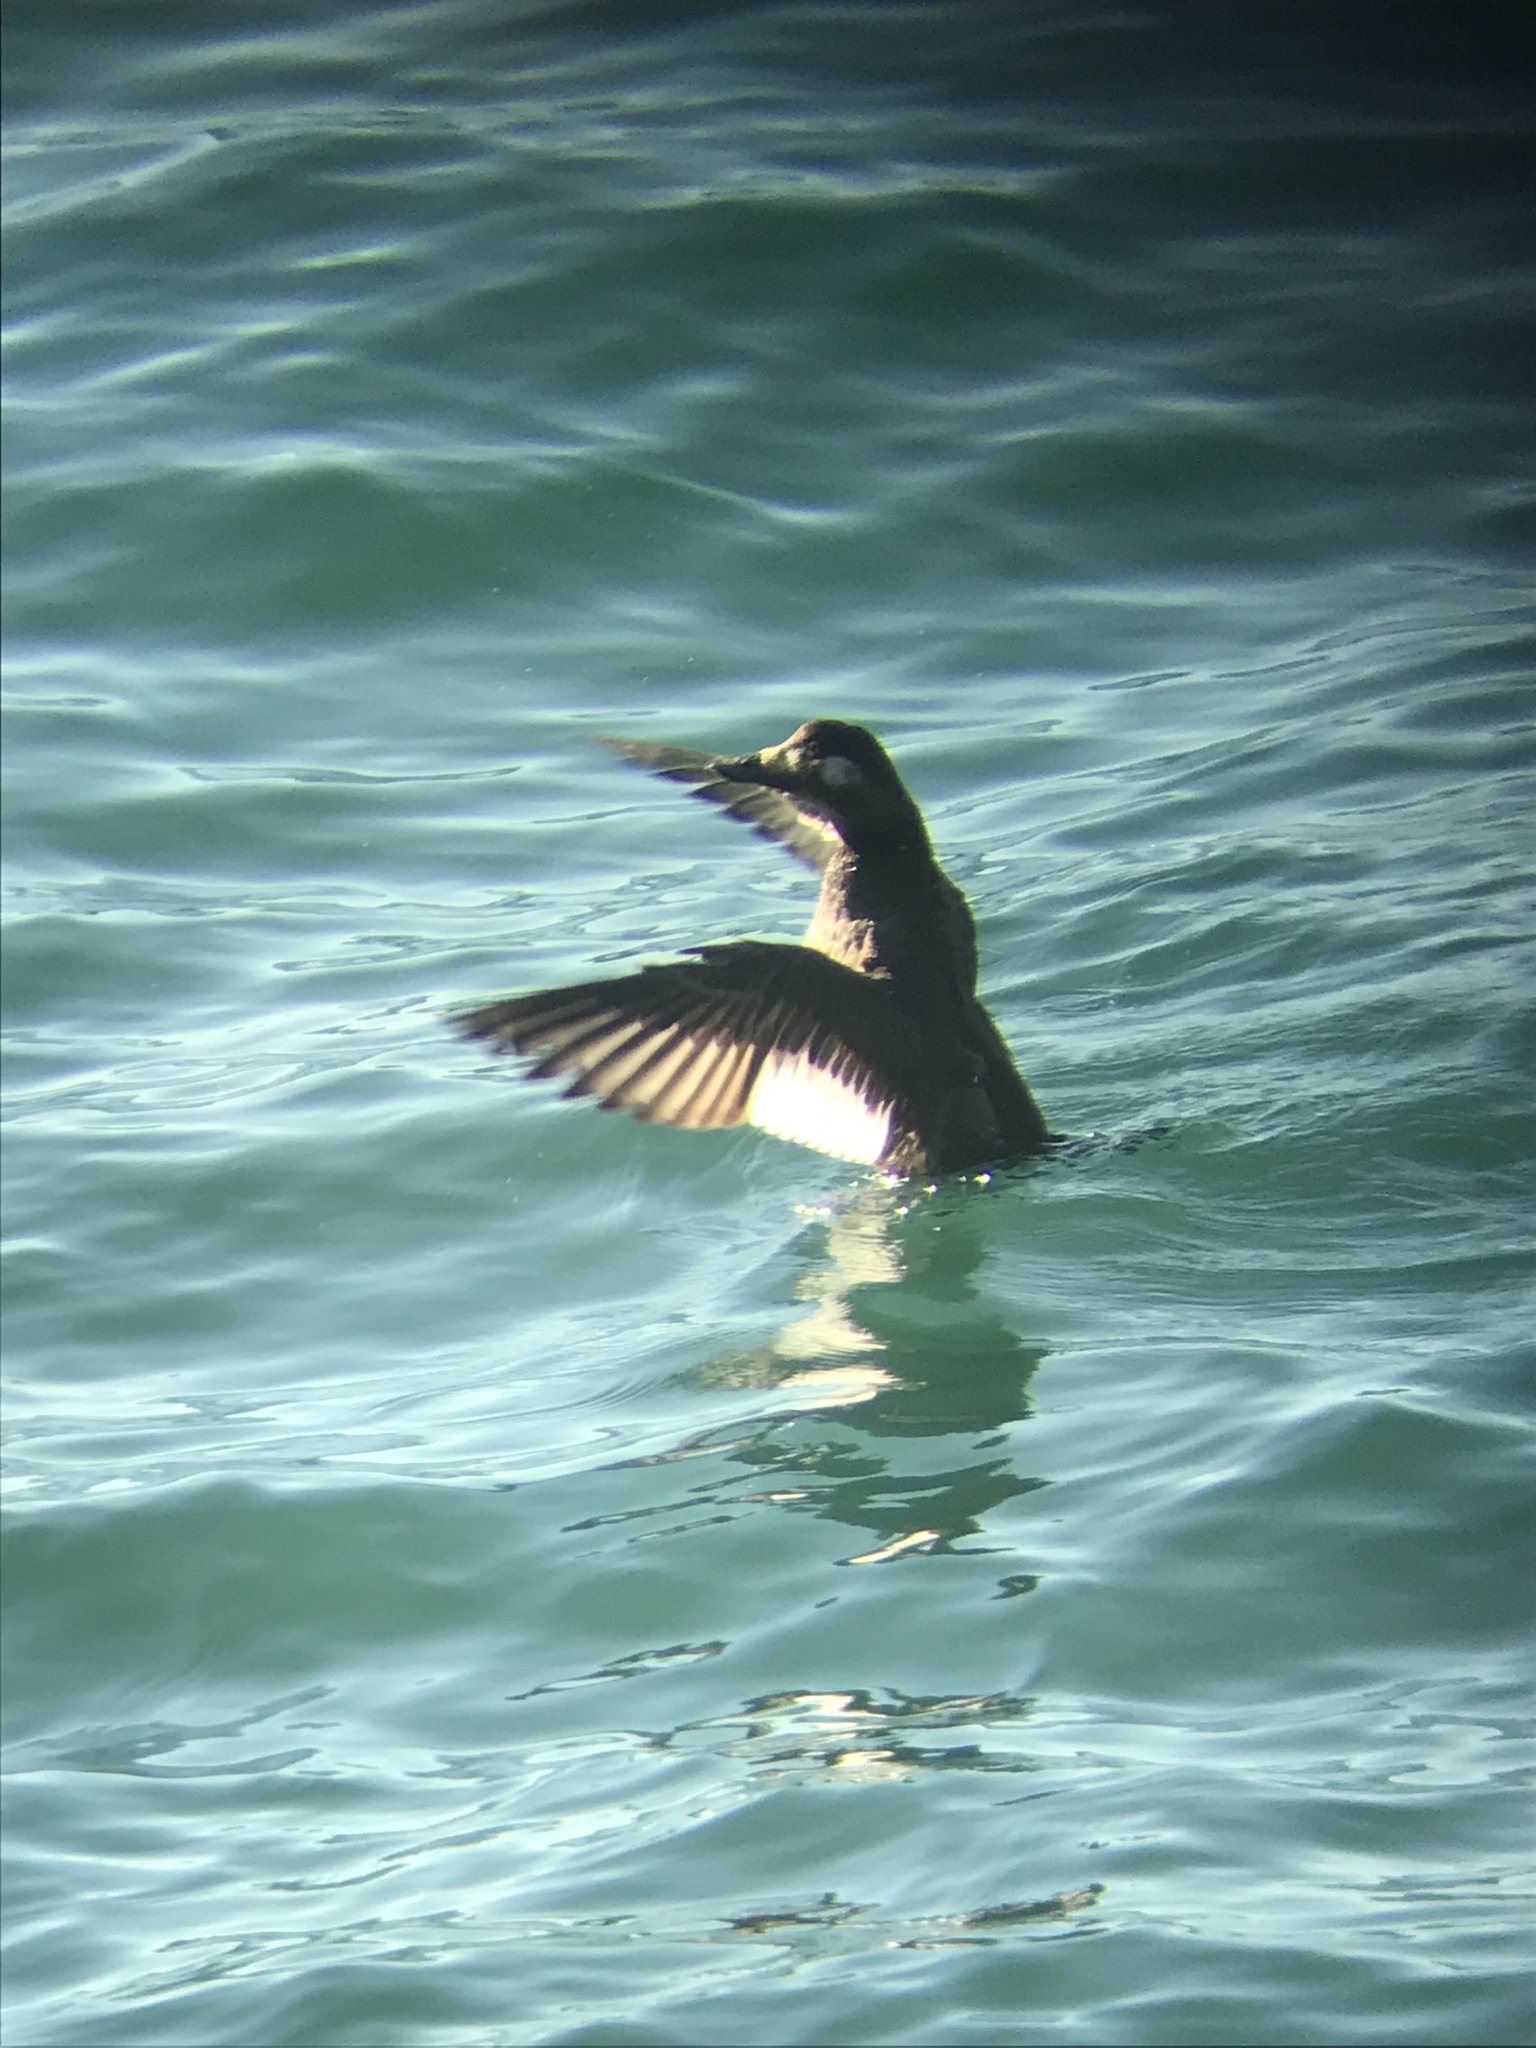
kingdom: Animalia
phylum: Chordata
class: Aves
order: Anseriformes
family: Anatidae
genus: Melanitta
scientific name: Melanitta deglandi
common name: White-winged scoter
